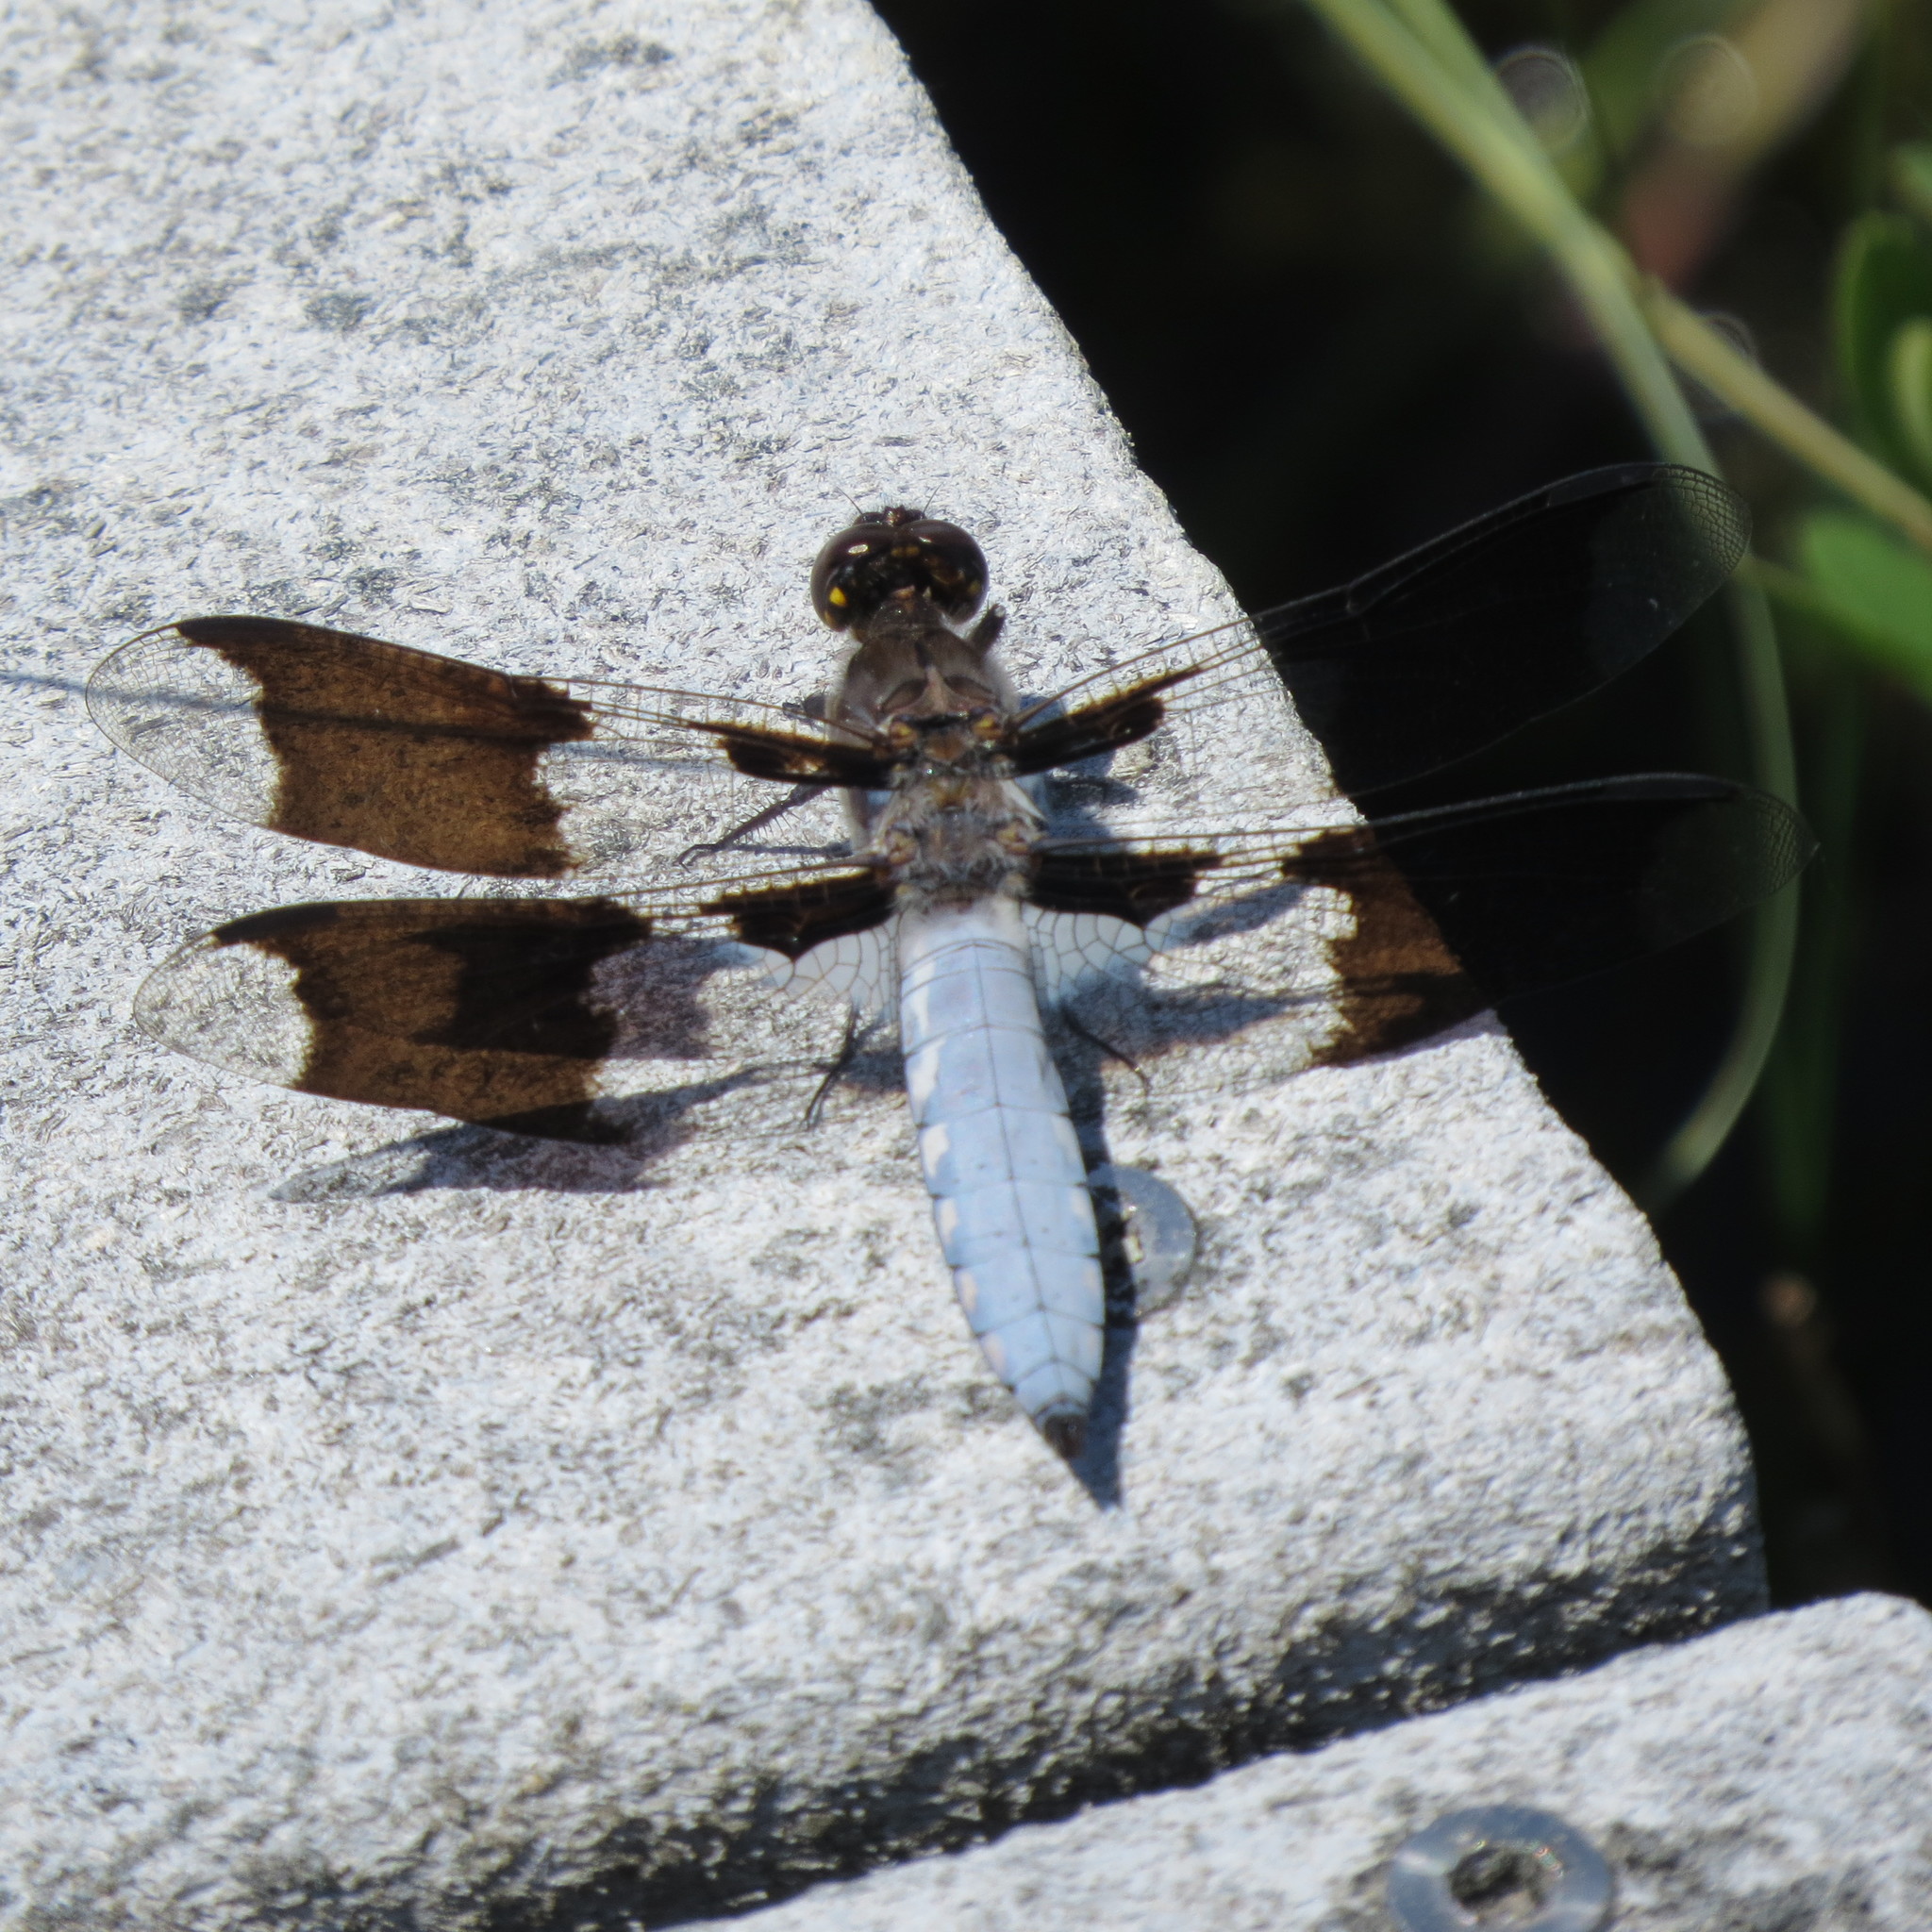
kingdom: Animalia
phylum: Arthropoda
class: Insecta
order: Odonata
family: Libellulidae
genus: Plathemis
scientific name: Plathemis lydia
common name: Common whitetail
